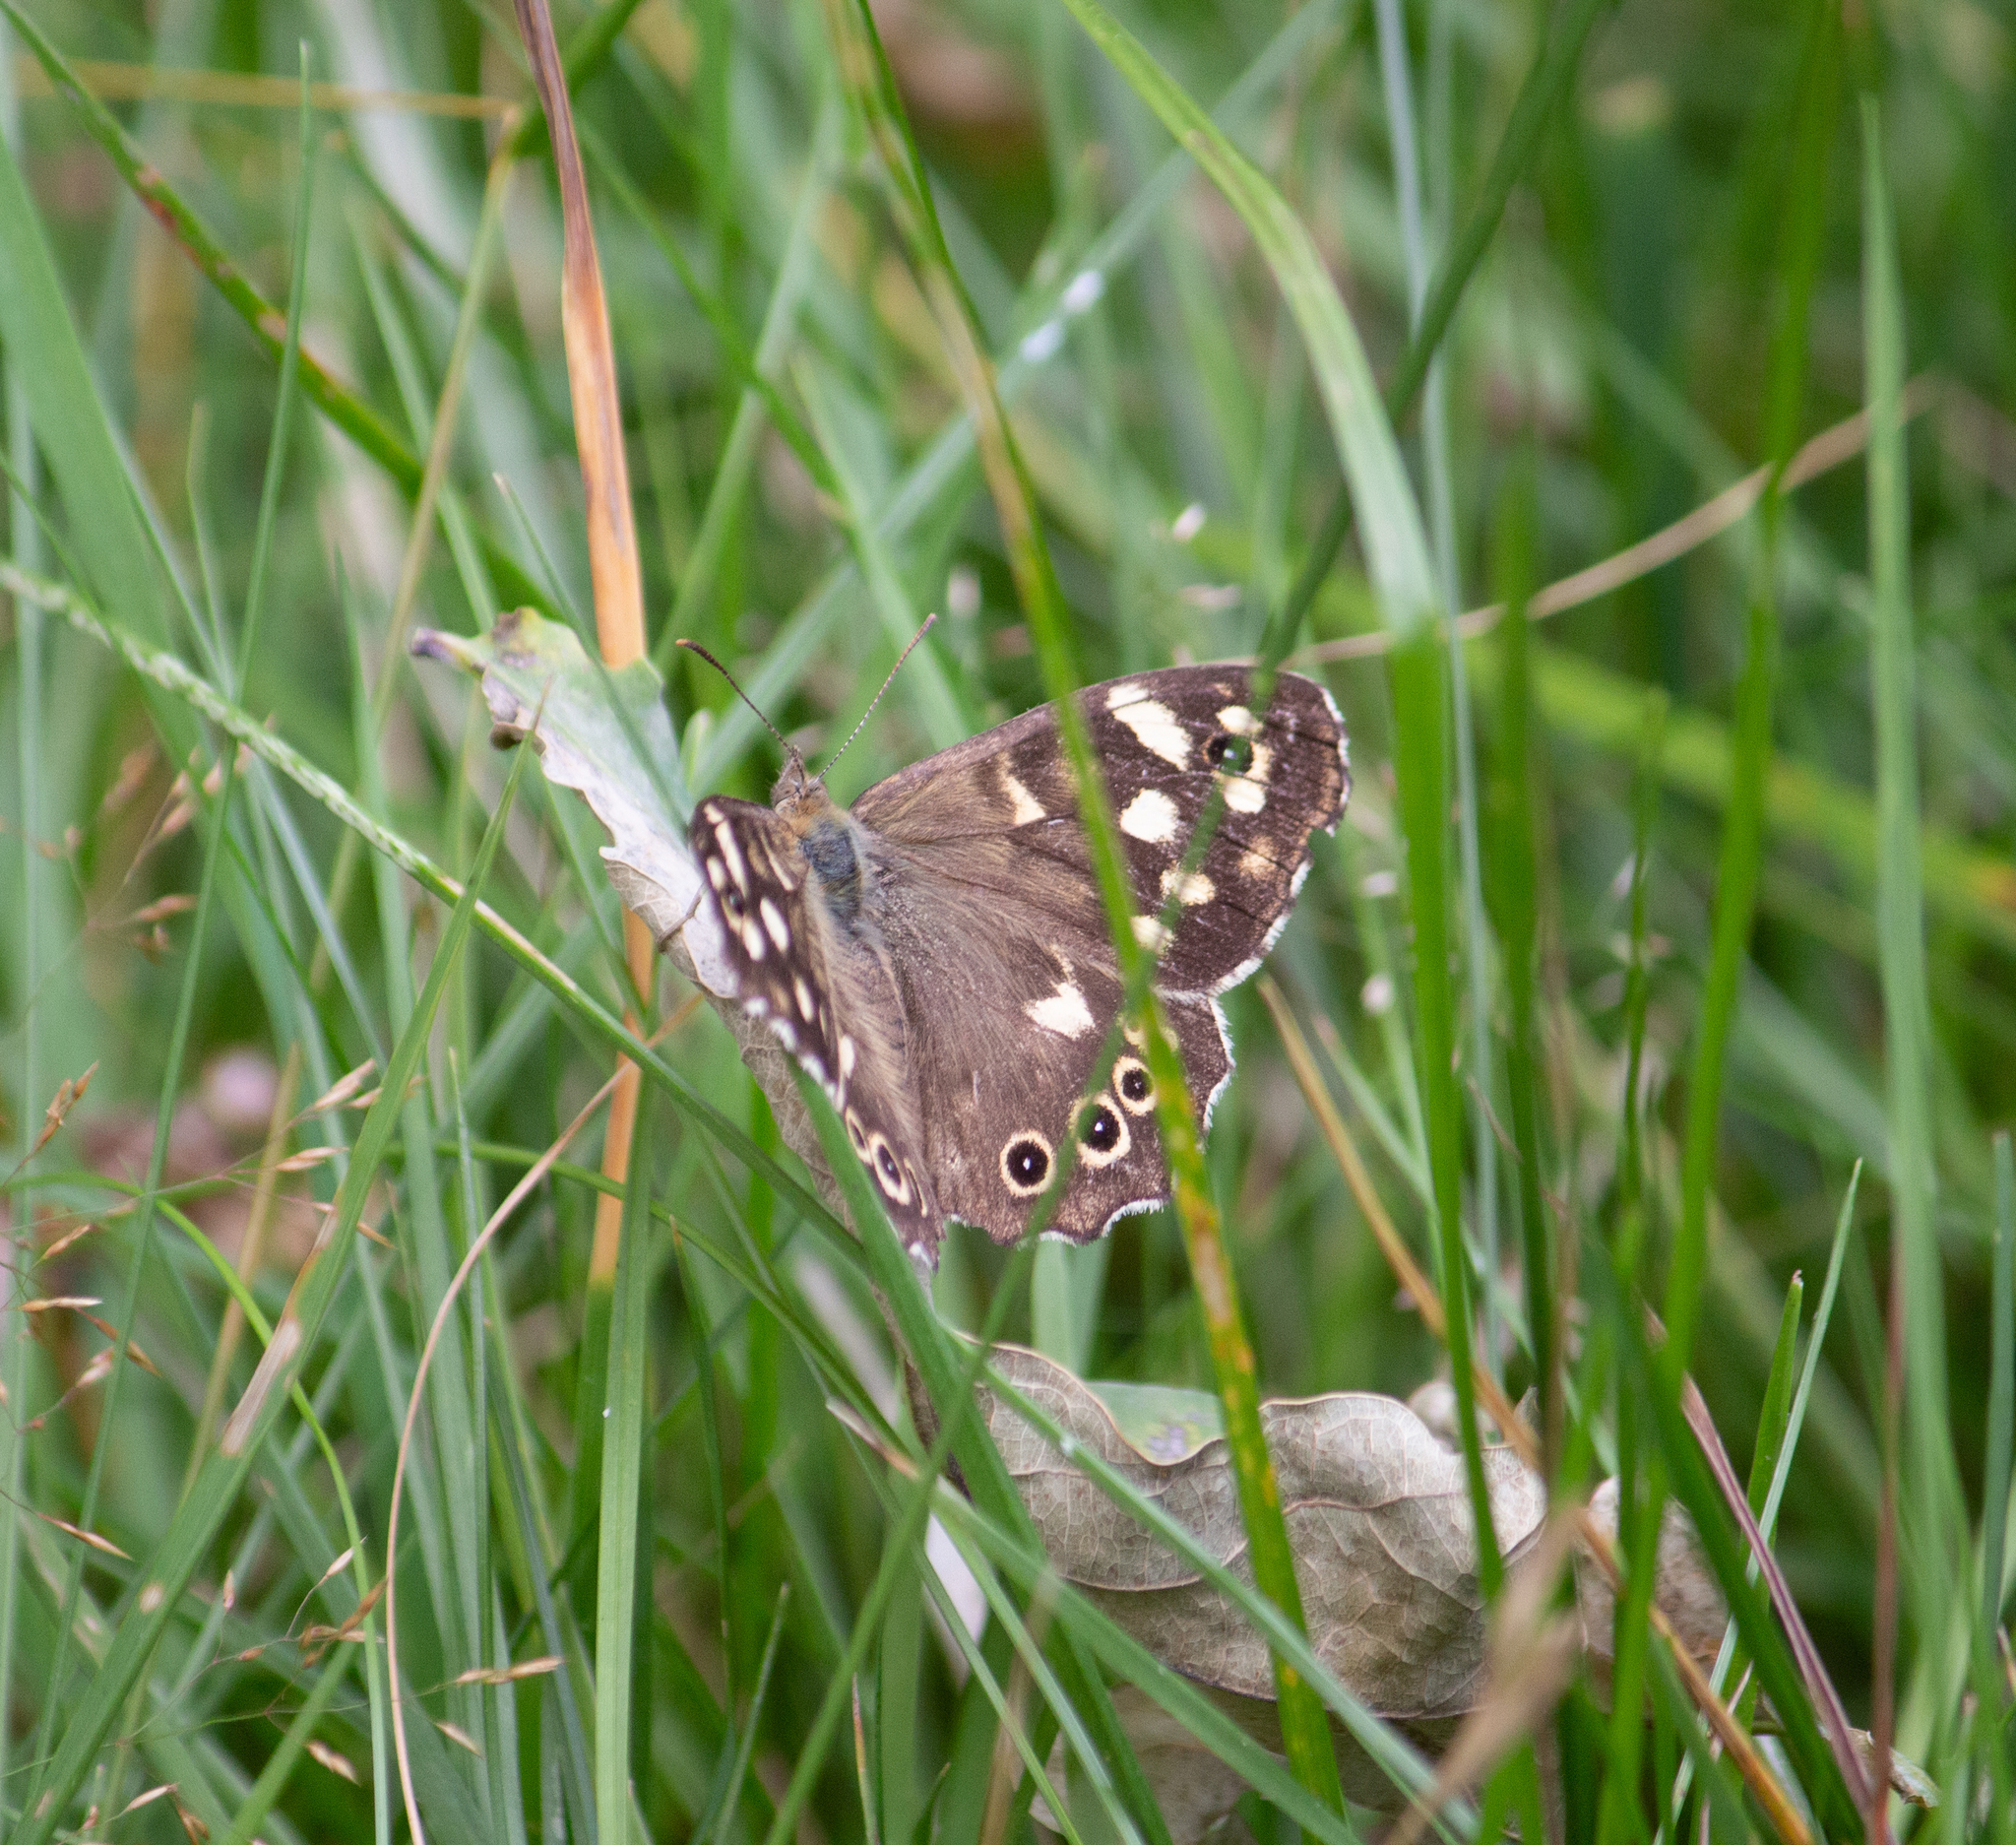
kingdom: Animalia
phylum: Arthropoda
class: Insecta
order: Lepidoptera
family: Nymphalidae
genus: Pararge
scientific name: Pararge aegeria
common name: Speckled wood
